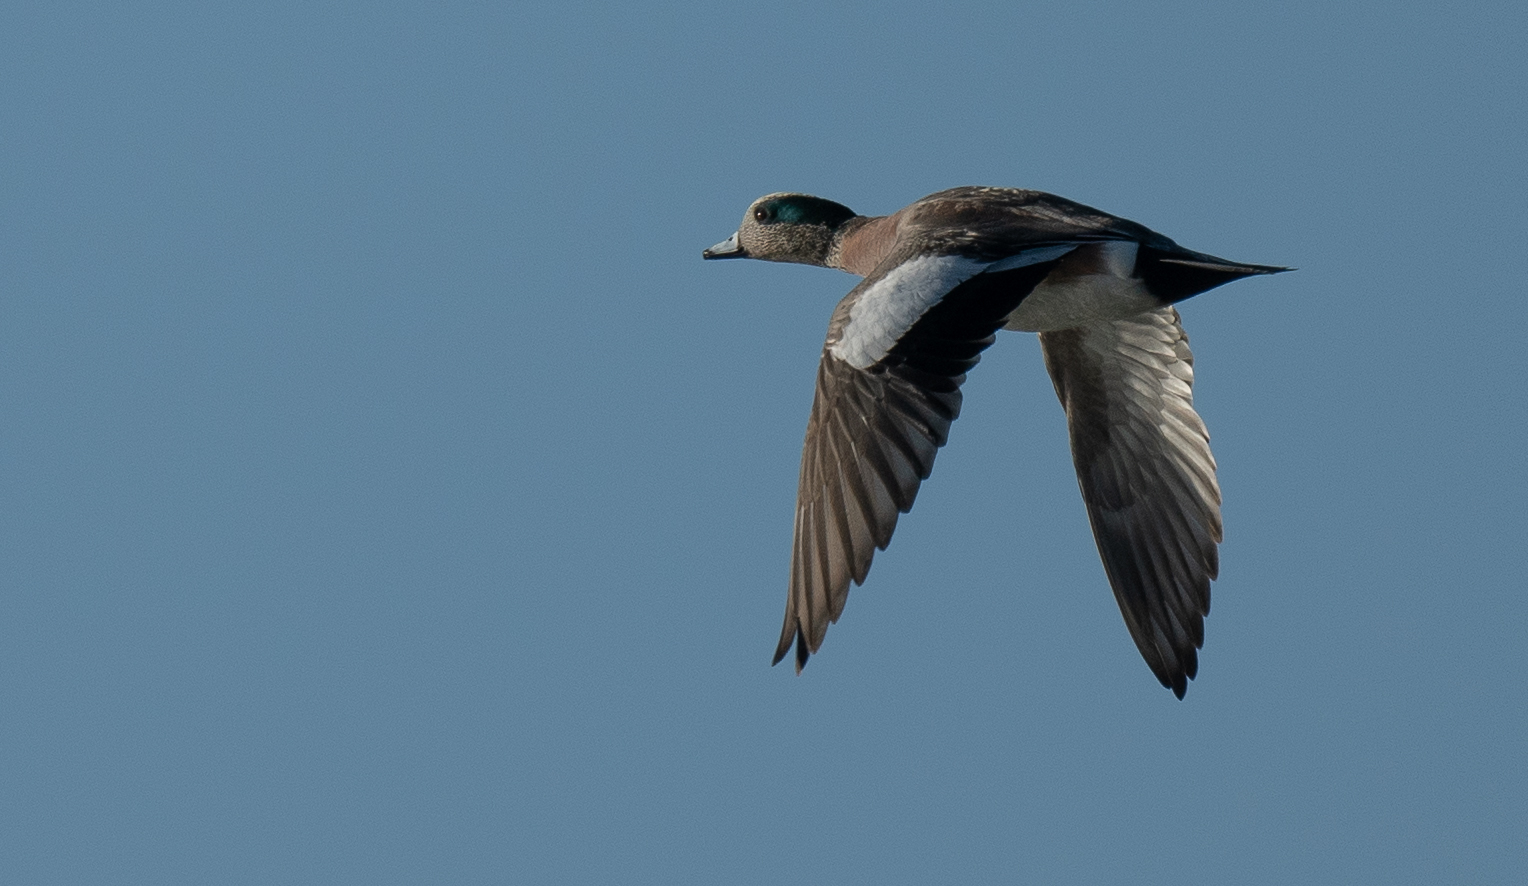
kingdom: Animalia
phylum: Chordata
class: Aves
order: Anseriformes
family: Anatidae
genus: Mareca
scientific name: Mareca americana
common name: American wigeon
